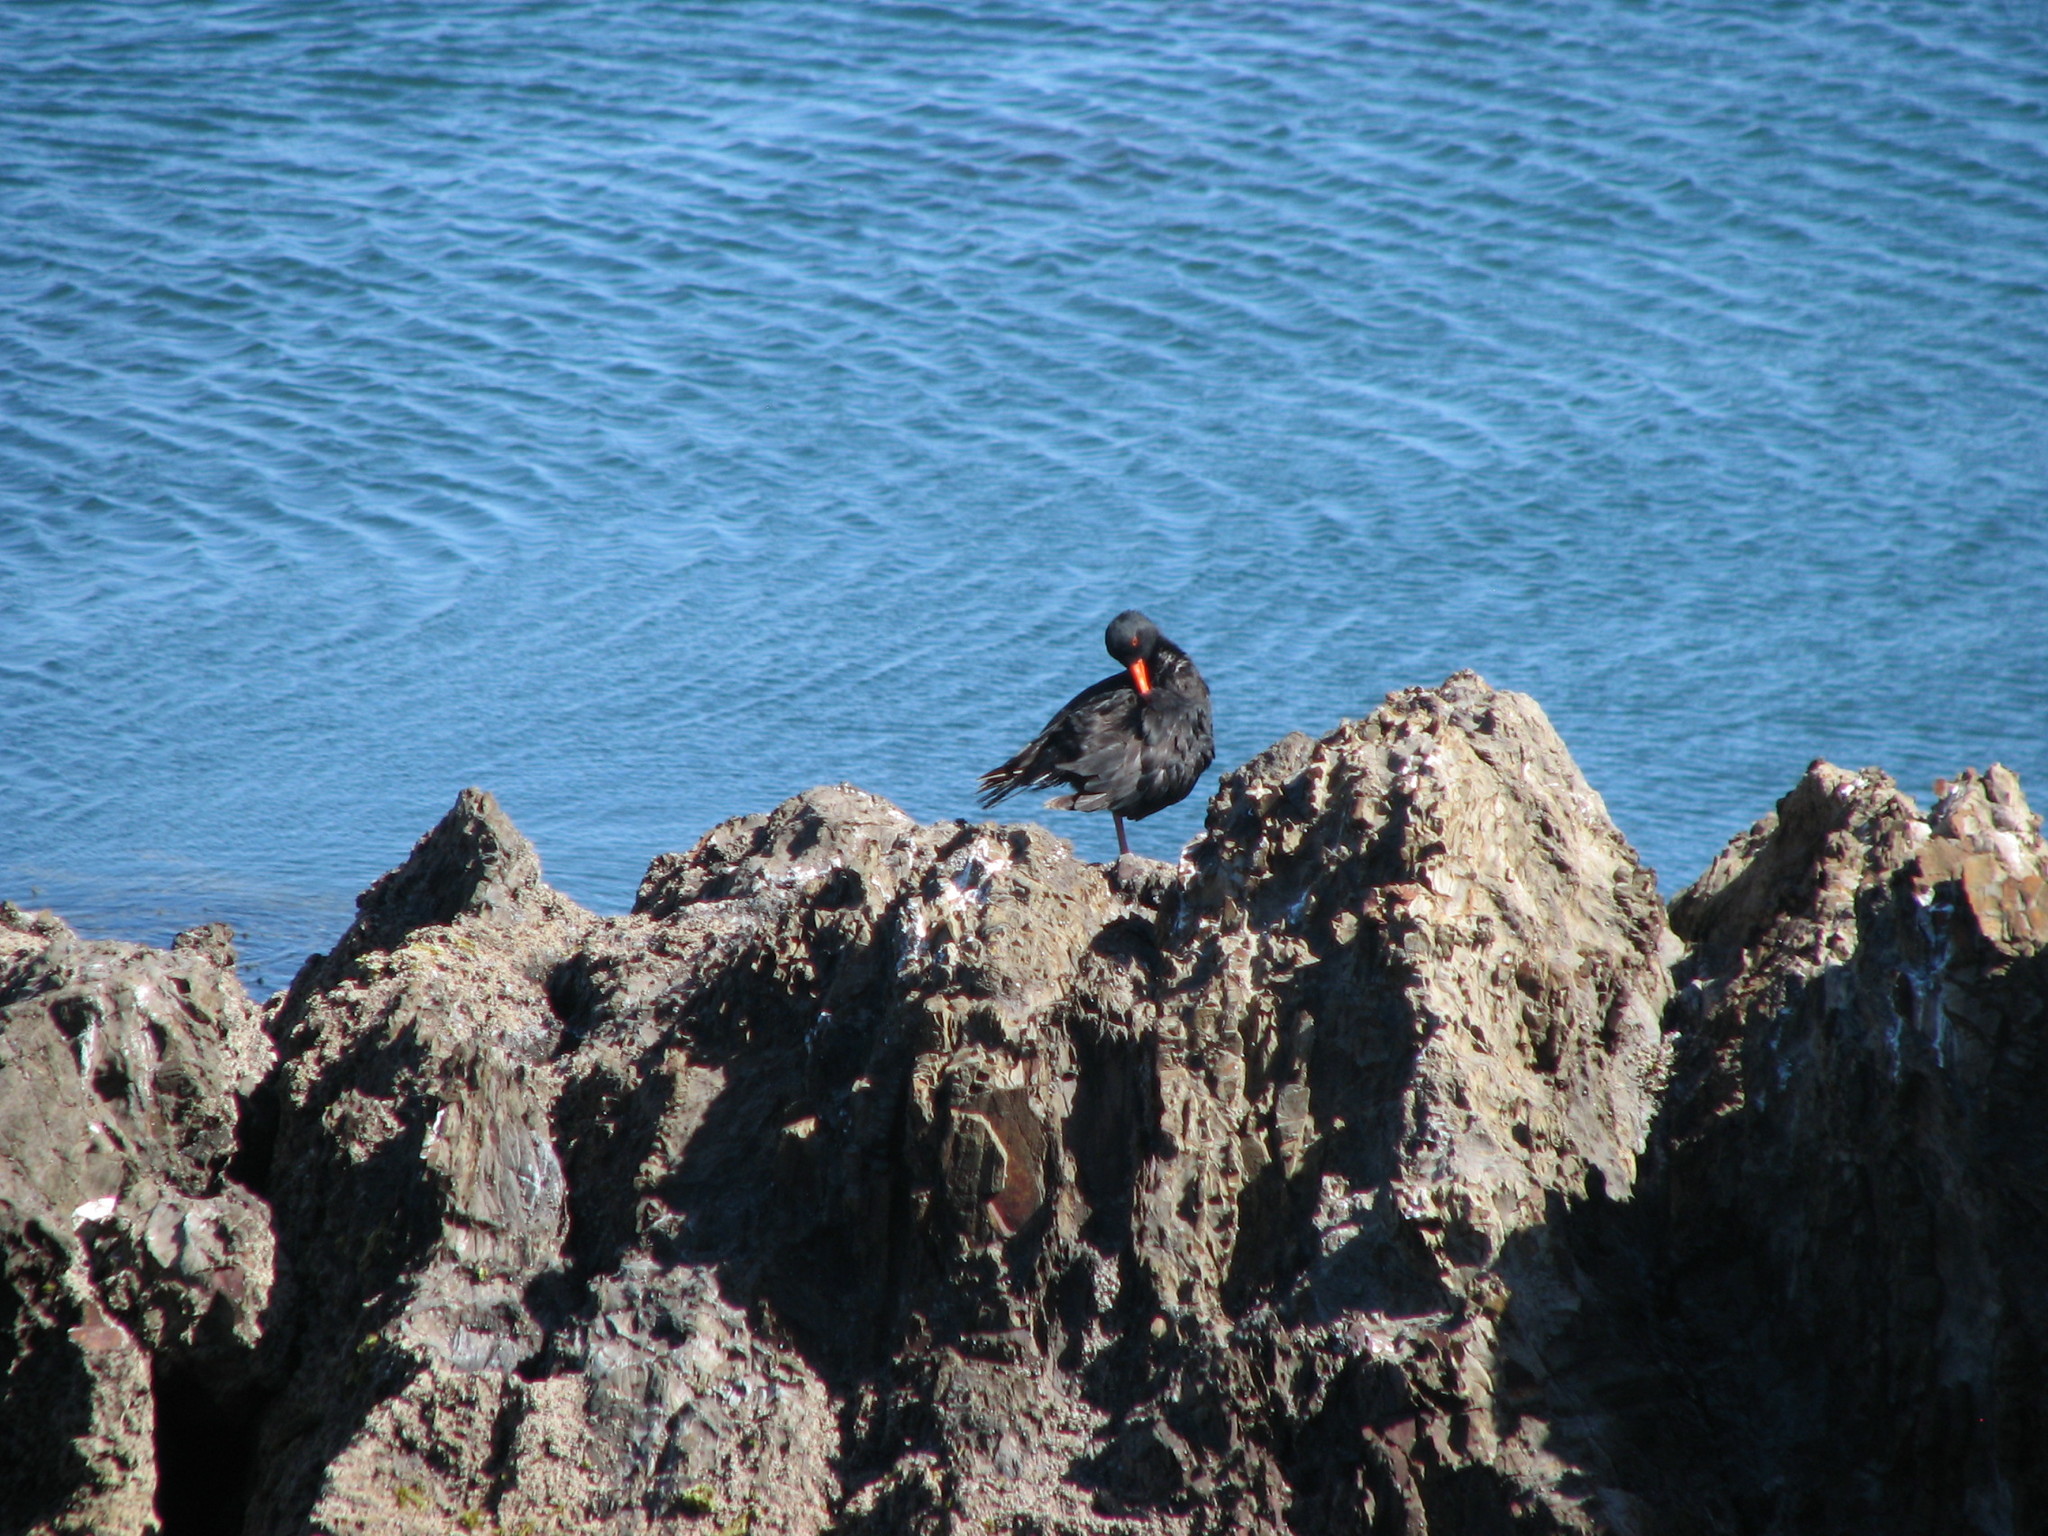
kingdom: Animalia
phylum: Chordata
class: Aves
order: Charadriiformes
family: Haematopodidae
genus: Haematopus
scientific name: Haematopus unicolor
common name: Variable oystercatcher
